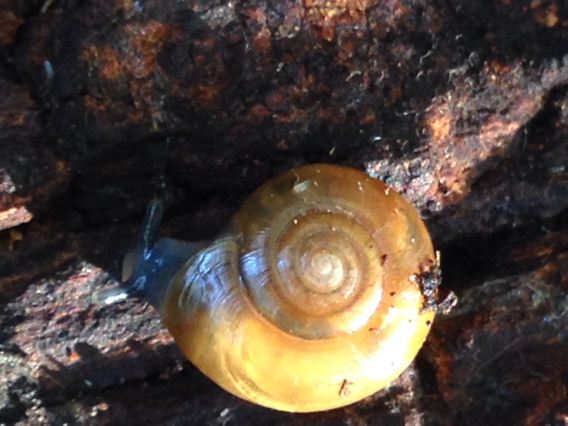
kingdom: Animalia
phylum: Mollusca
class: Gastropoda
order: Stylommatophora
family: Oxychilidae
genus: Oxychilus
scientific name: Oxychilus draparnaudi
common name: Draparnaud's glass snail
